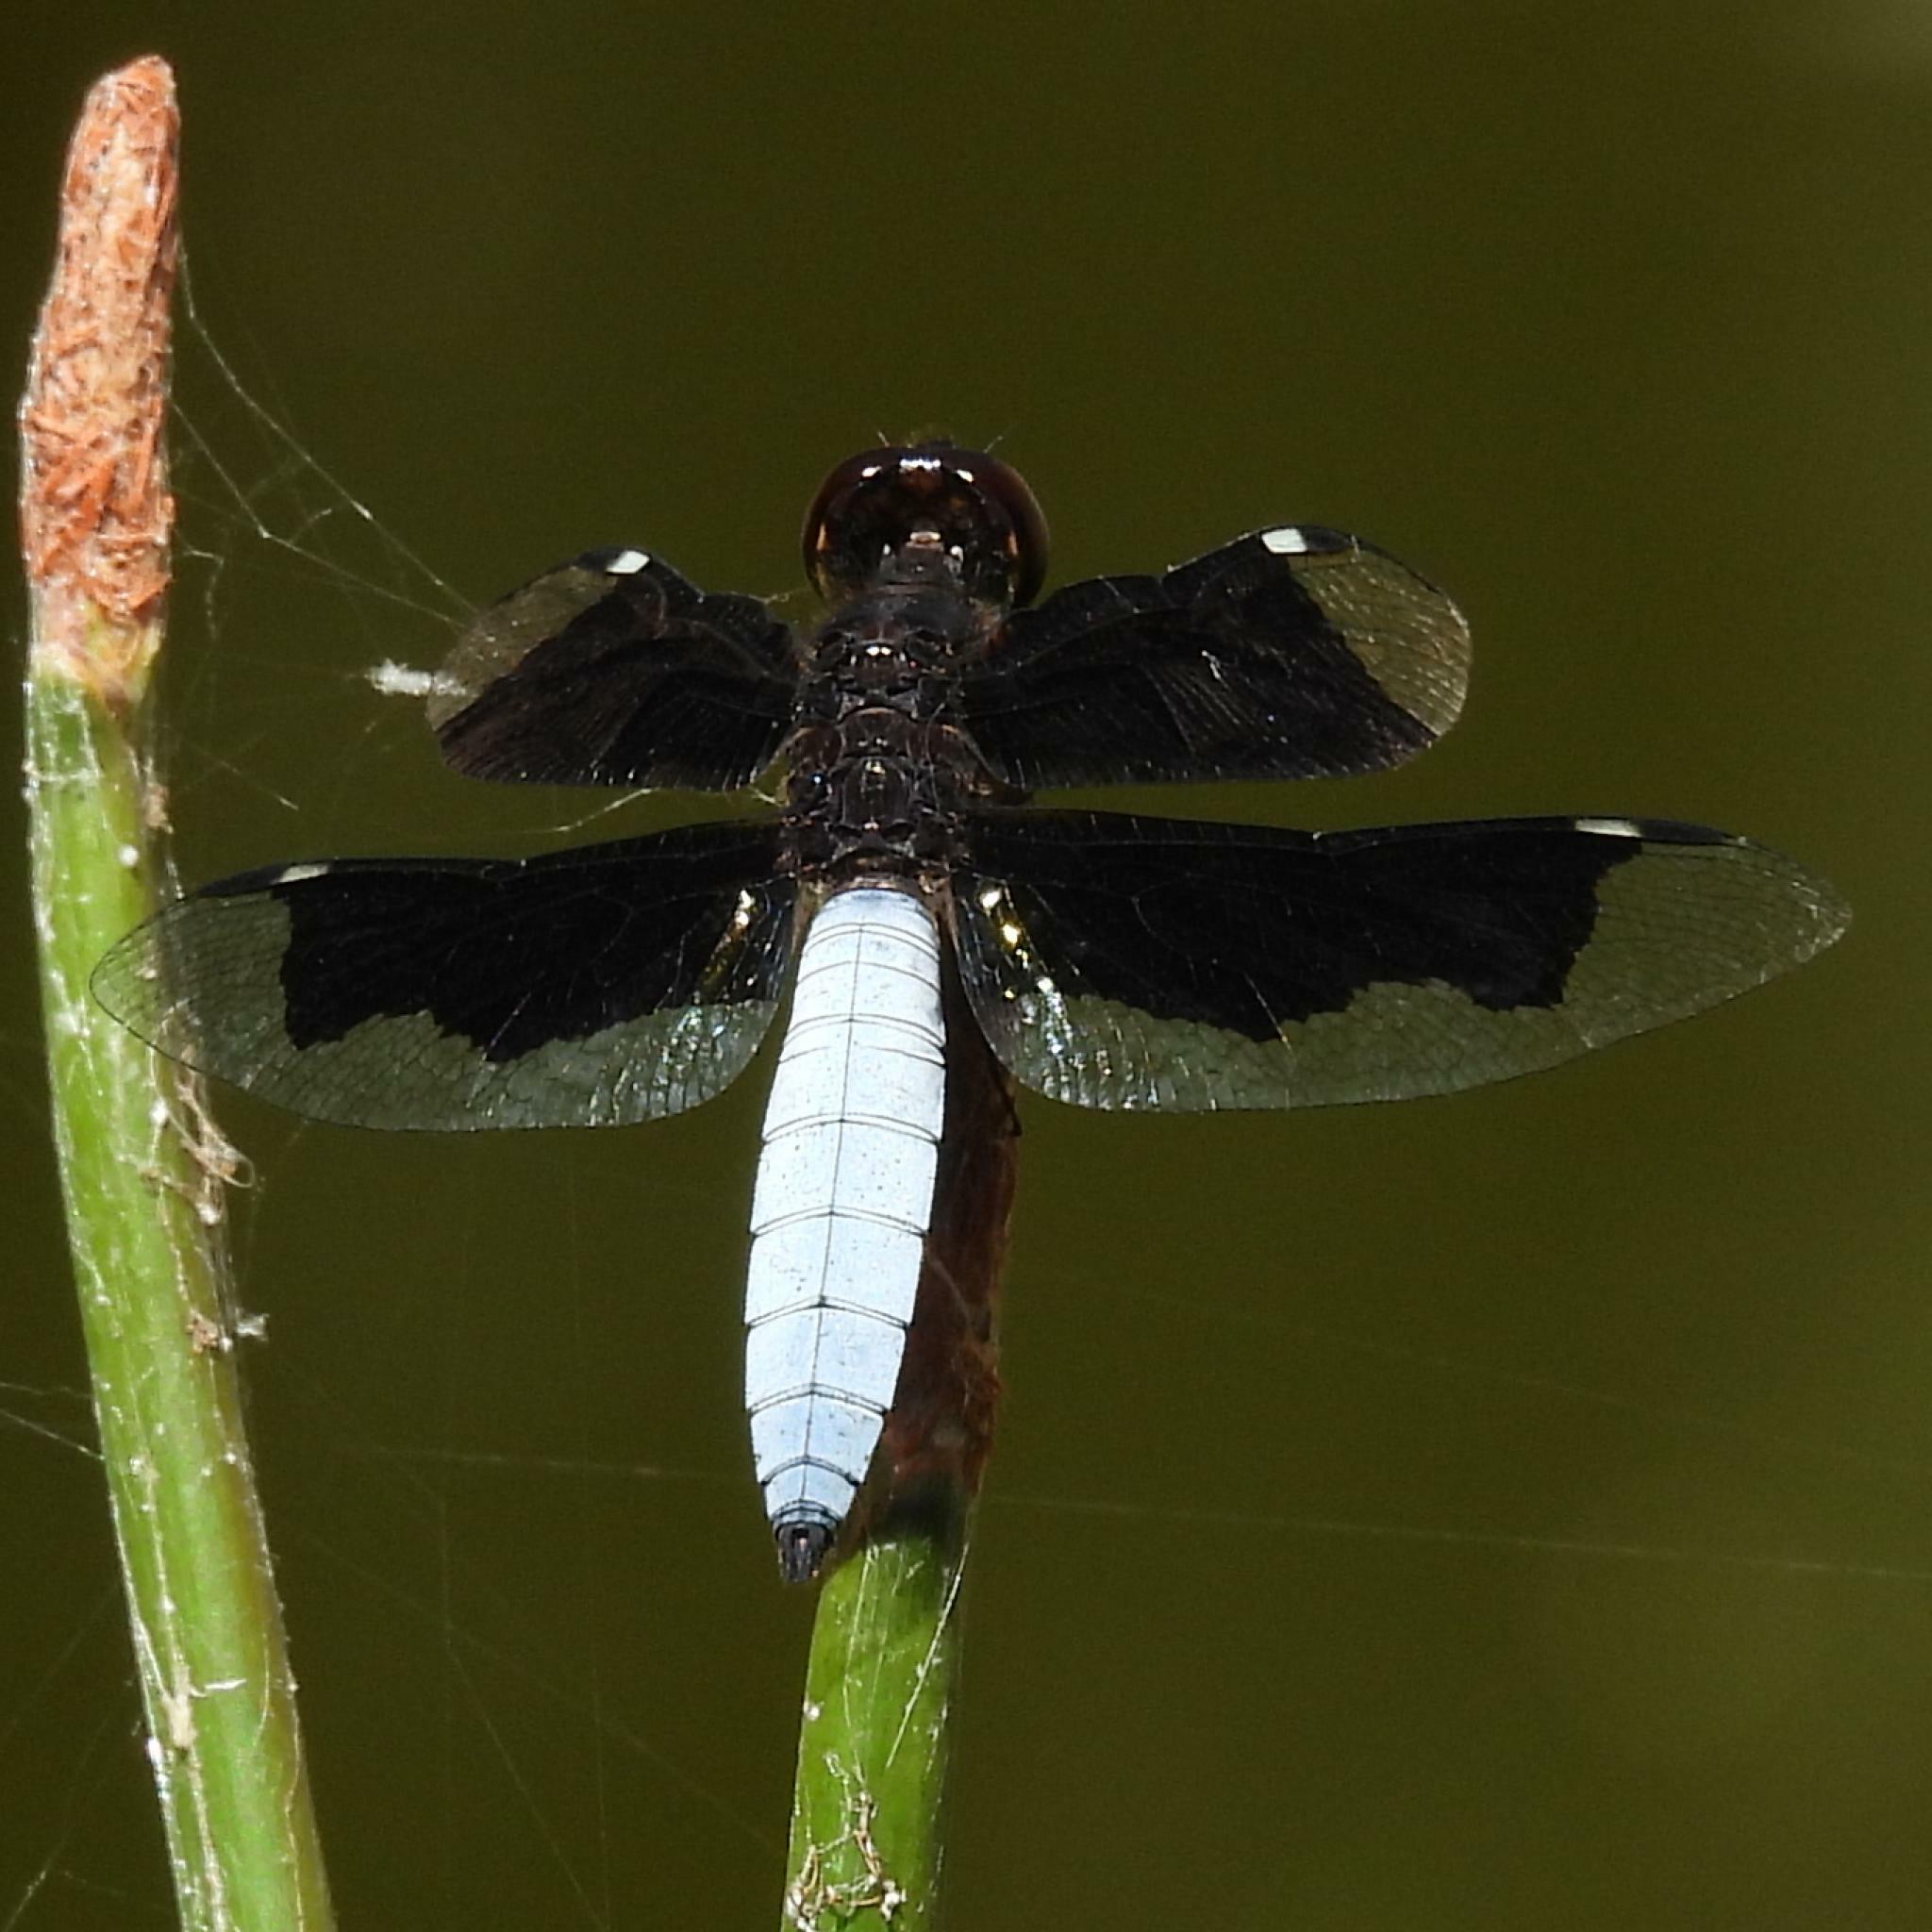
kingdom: Animalia
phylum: Arthropoda
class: Insecta
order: Odonata
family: Libellulidae
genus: Palpopleura
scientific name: Palpopleura lucia
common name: Lucia widow
